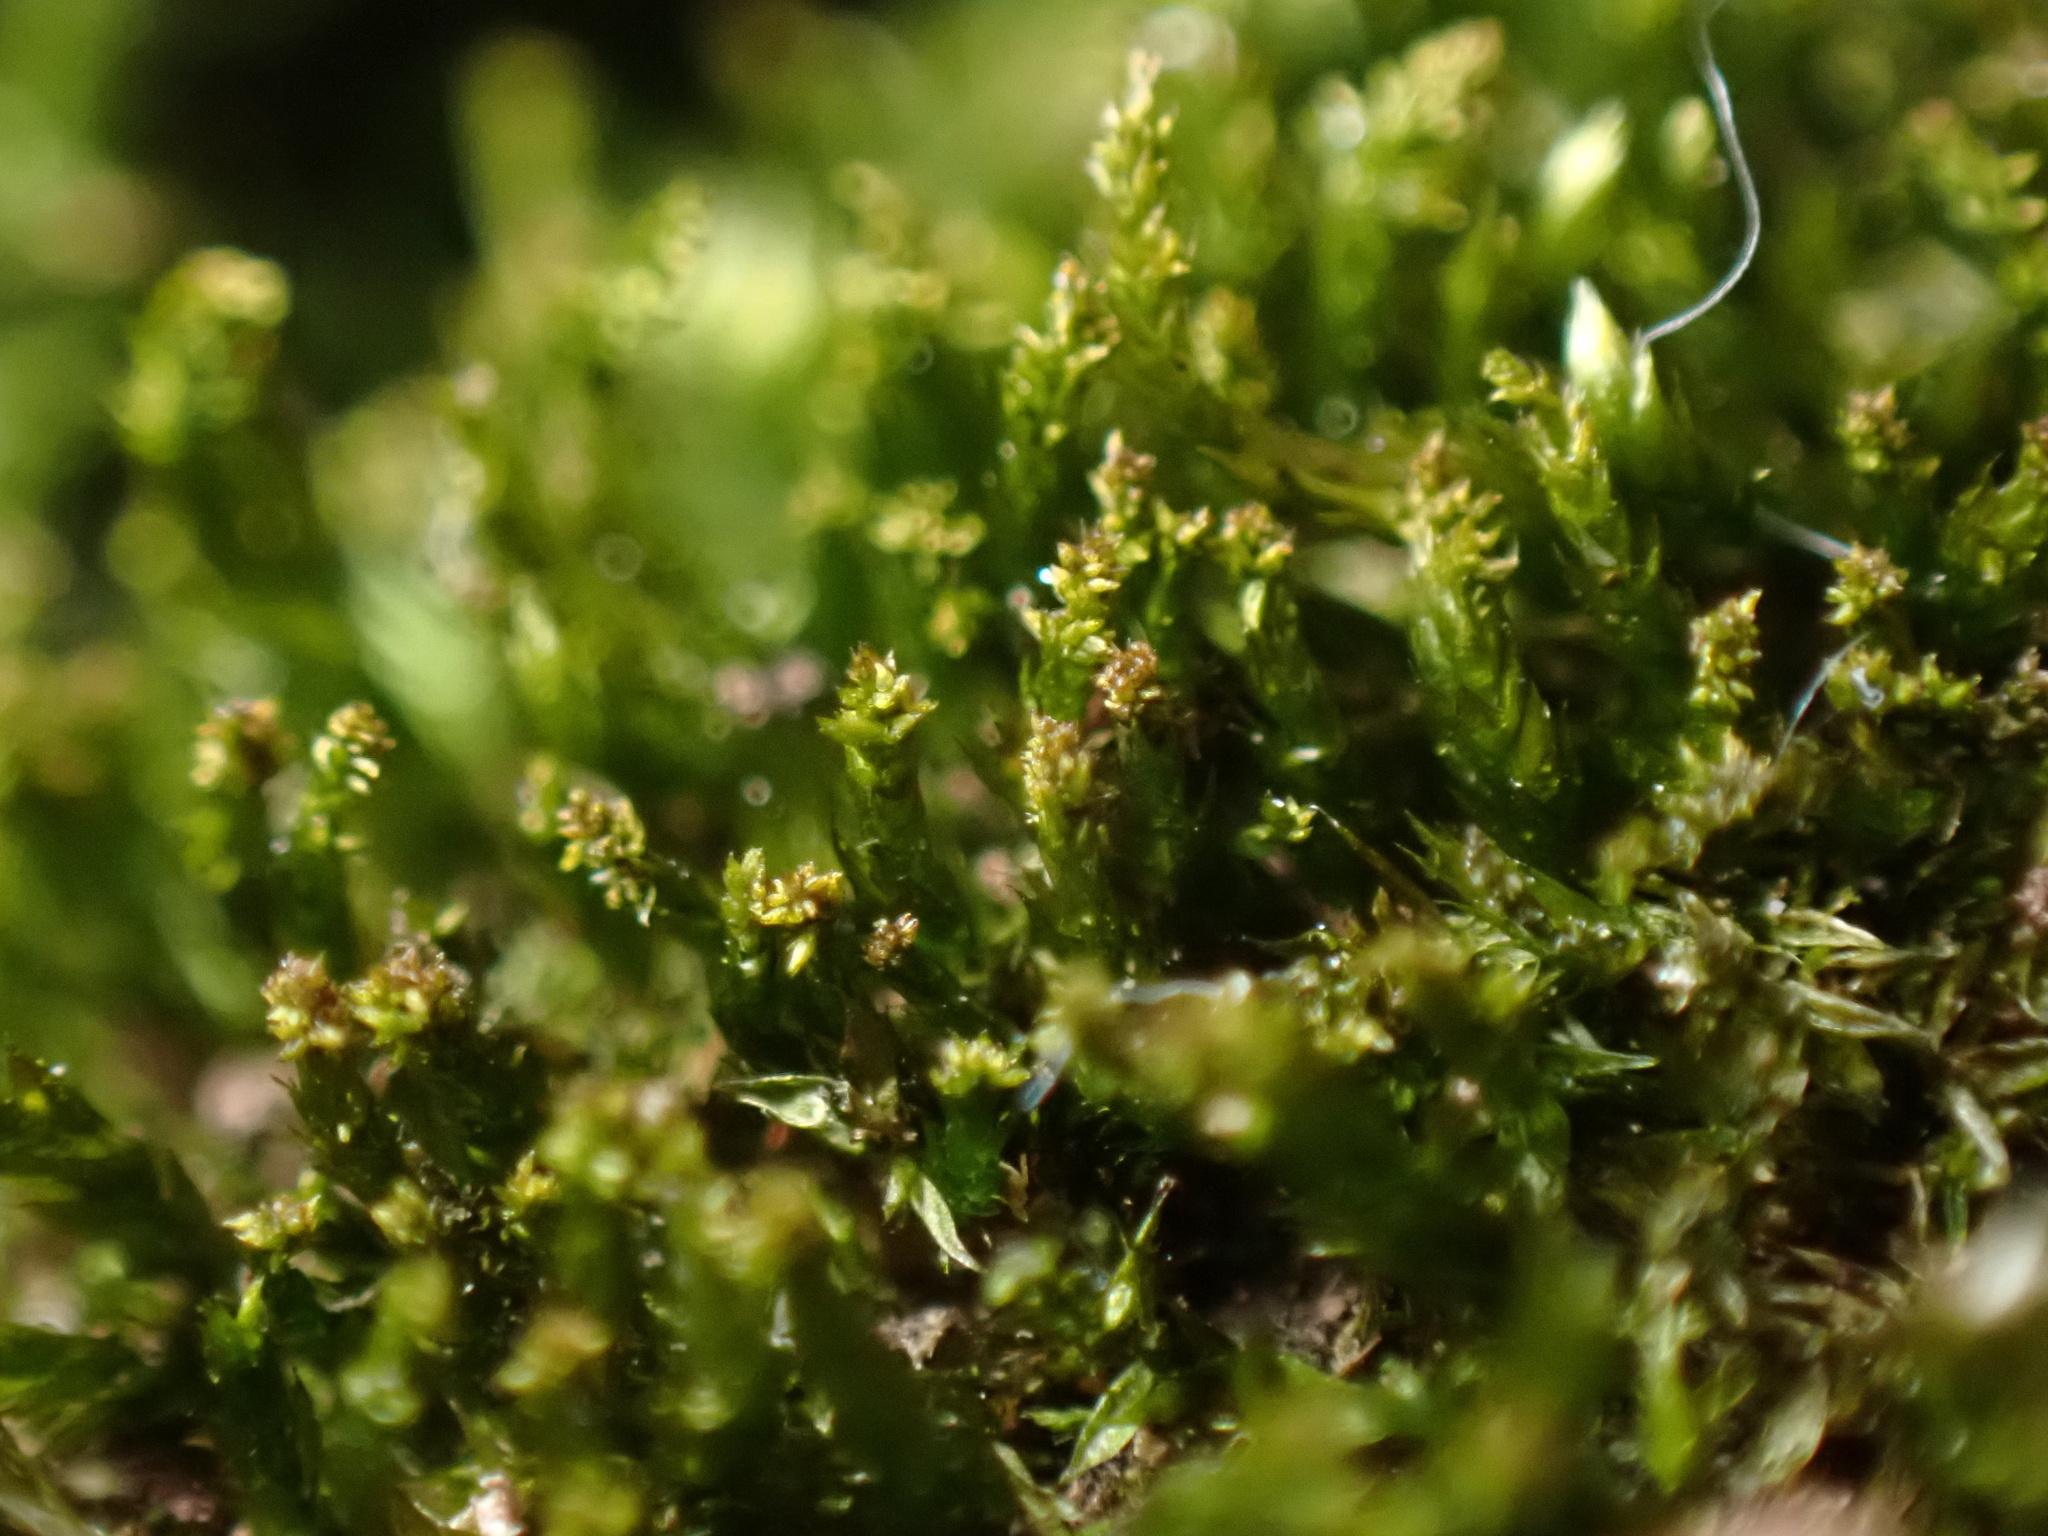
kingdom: Plantae
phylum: Bryophyta
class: Bryopsida
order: Hypnales
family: Pylaisiadelphaceae
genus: Platygyrium
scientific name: Platygyrium repens
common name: Flat-brocade moss
